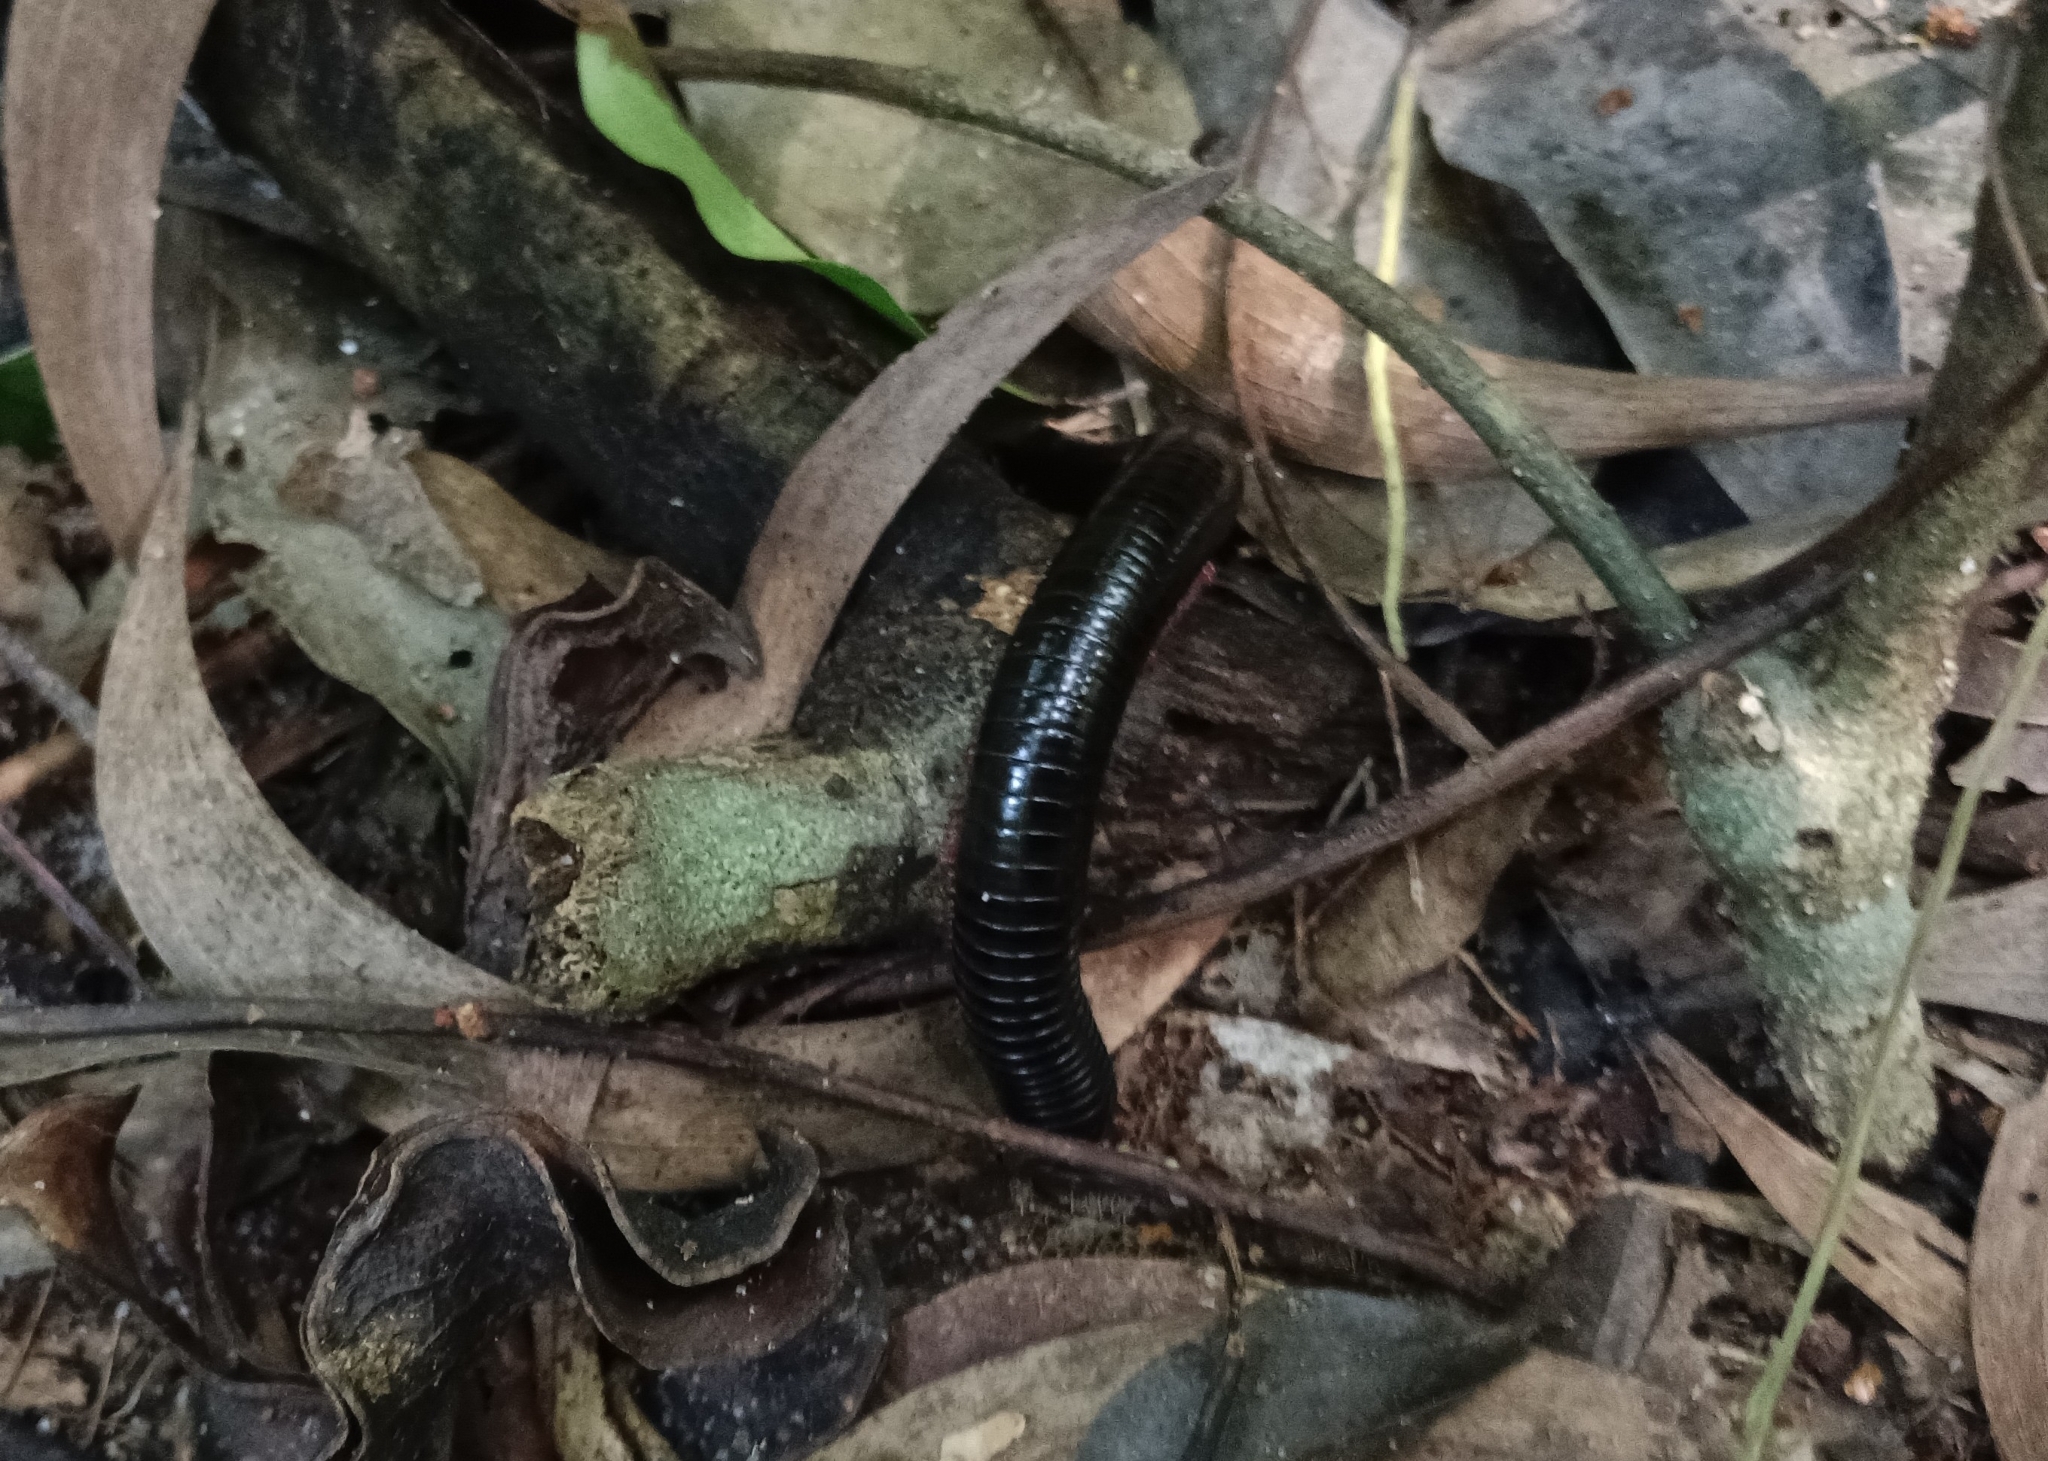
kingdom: Animalia
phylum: Arthropoda
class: Diplopoda
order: Spirostreptida
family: Harpagophoridae
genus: Phyllogonostreptus
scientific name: Phyllogonostreptus nigrolabiatus
